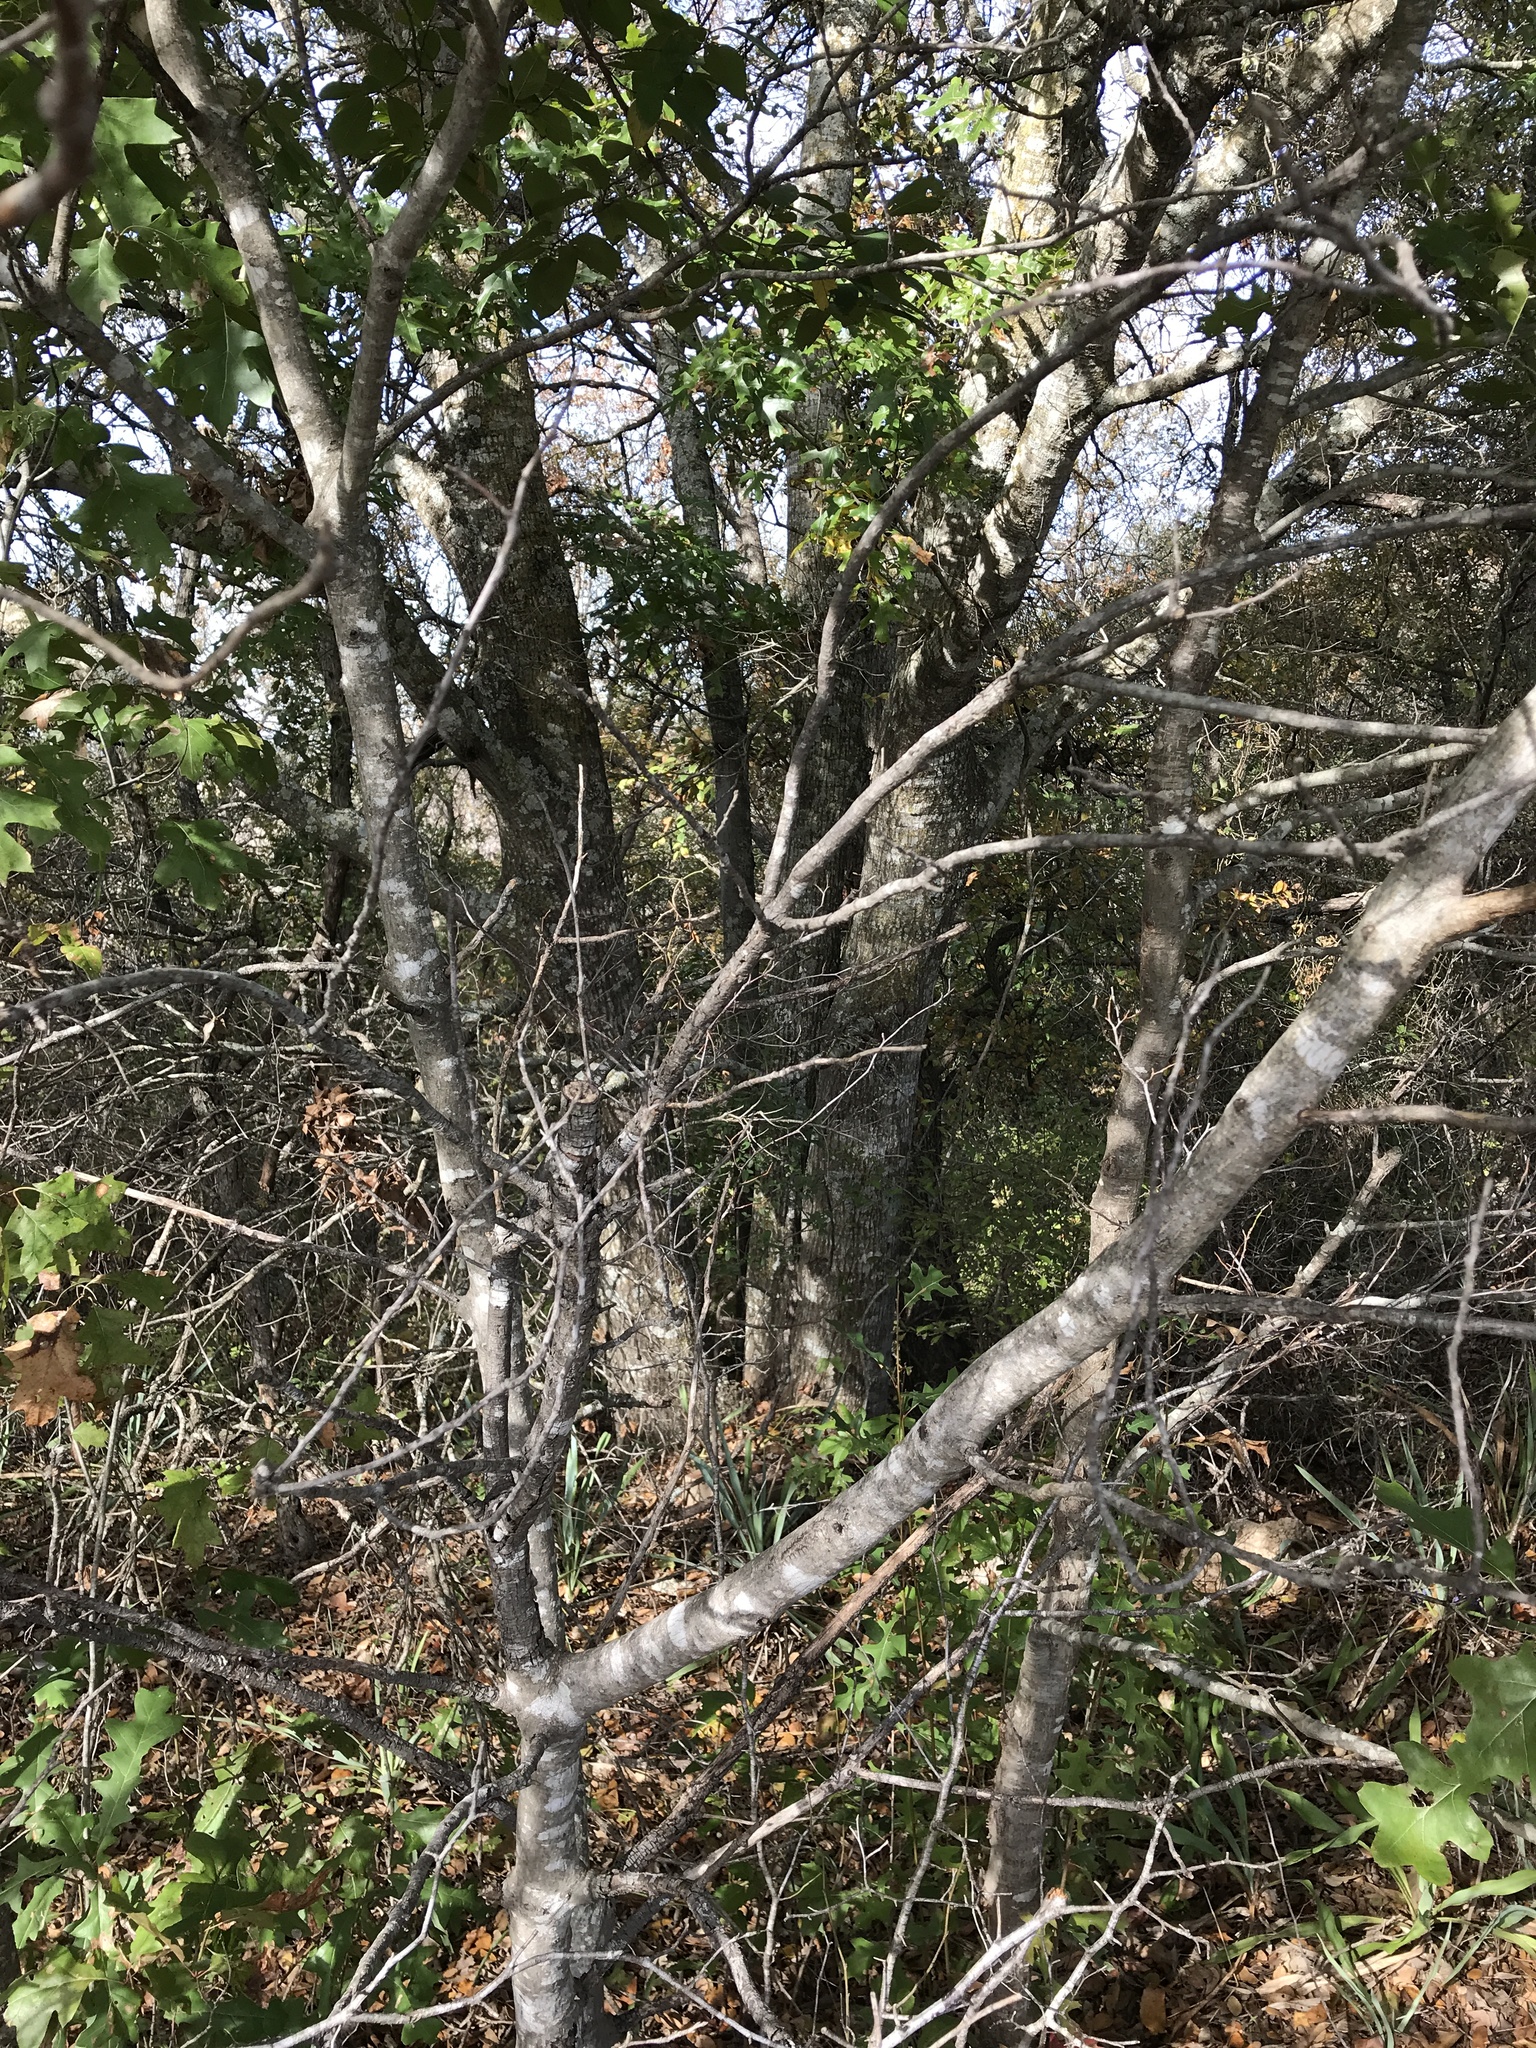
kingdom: Plantae
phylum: Tracheophyta
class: Magnoliopsida
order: Fagales
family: Fagaceae
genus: Quercus
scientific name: Quercus buckleyi
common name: Buckley oak
